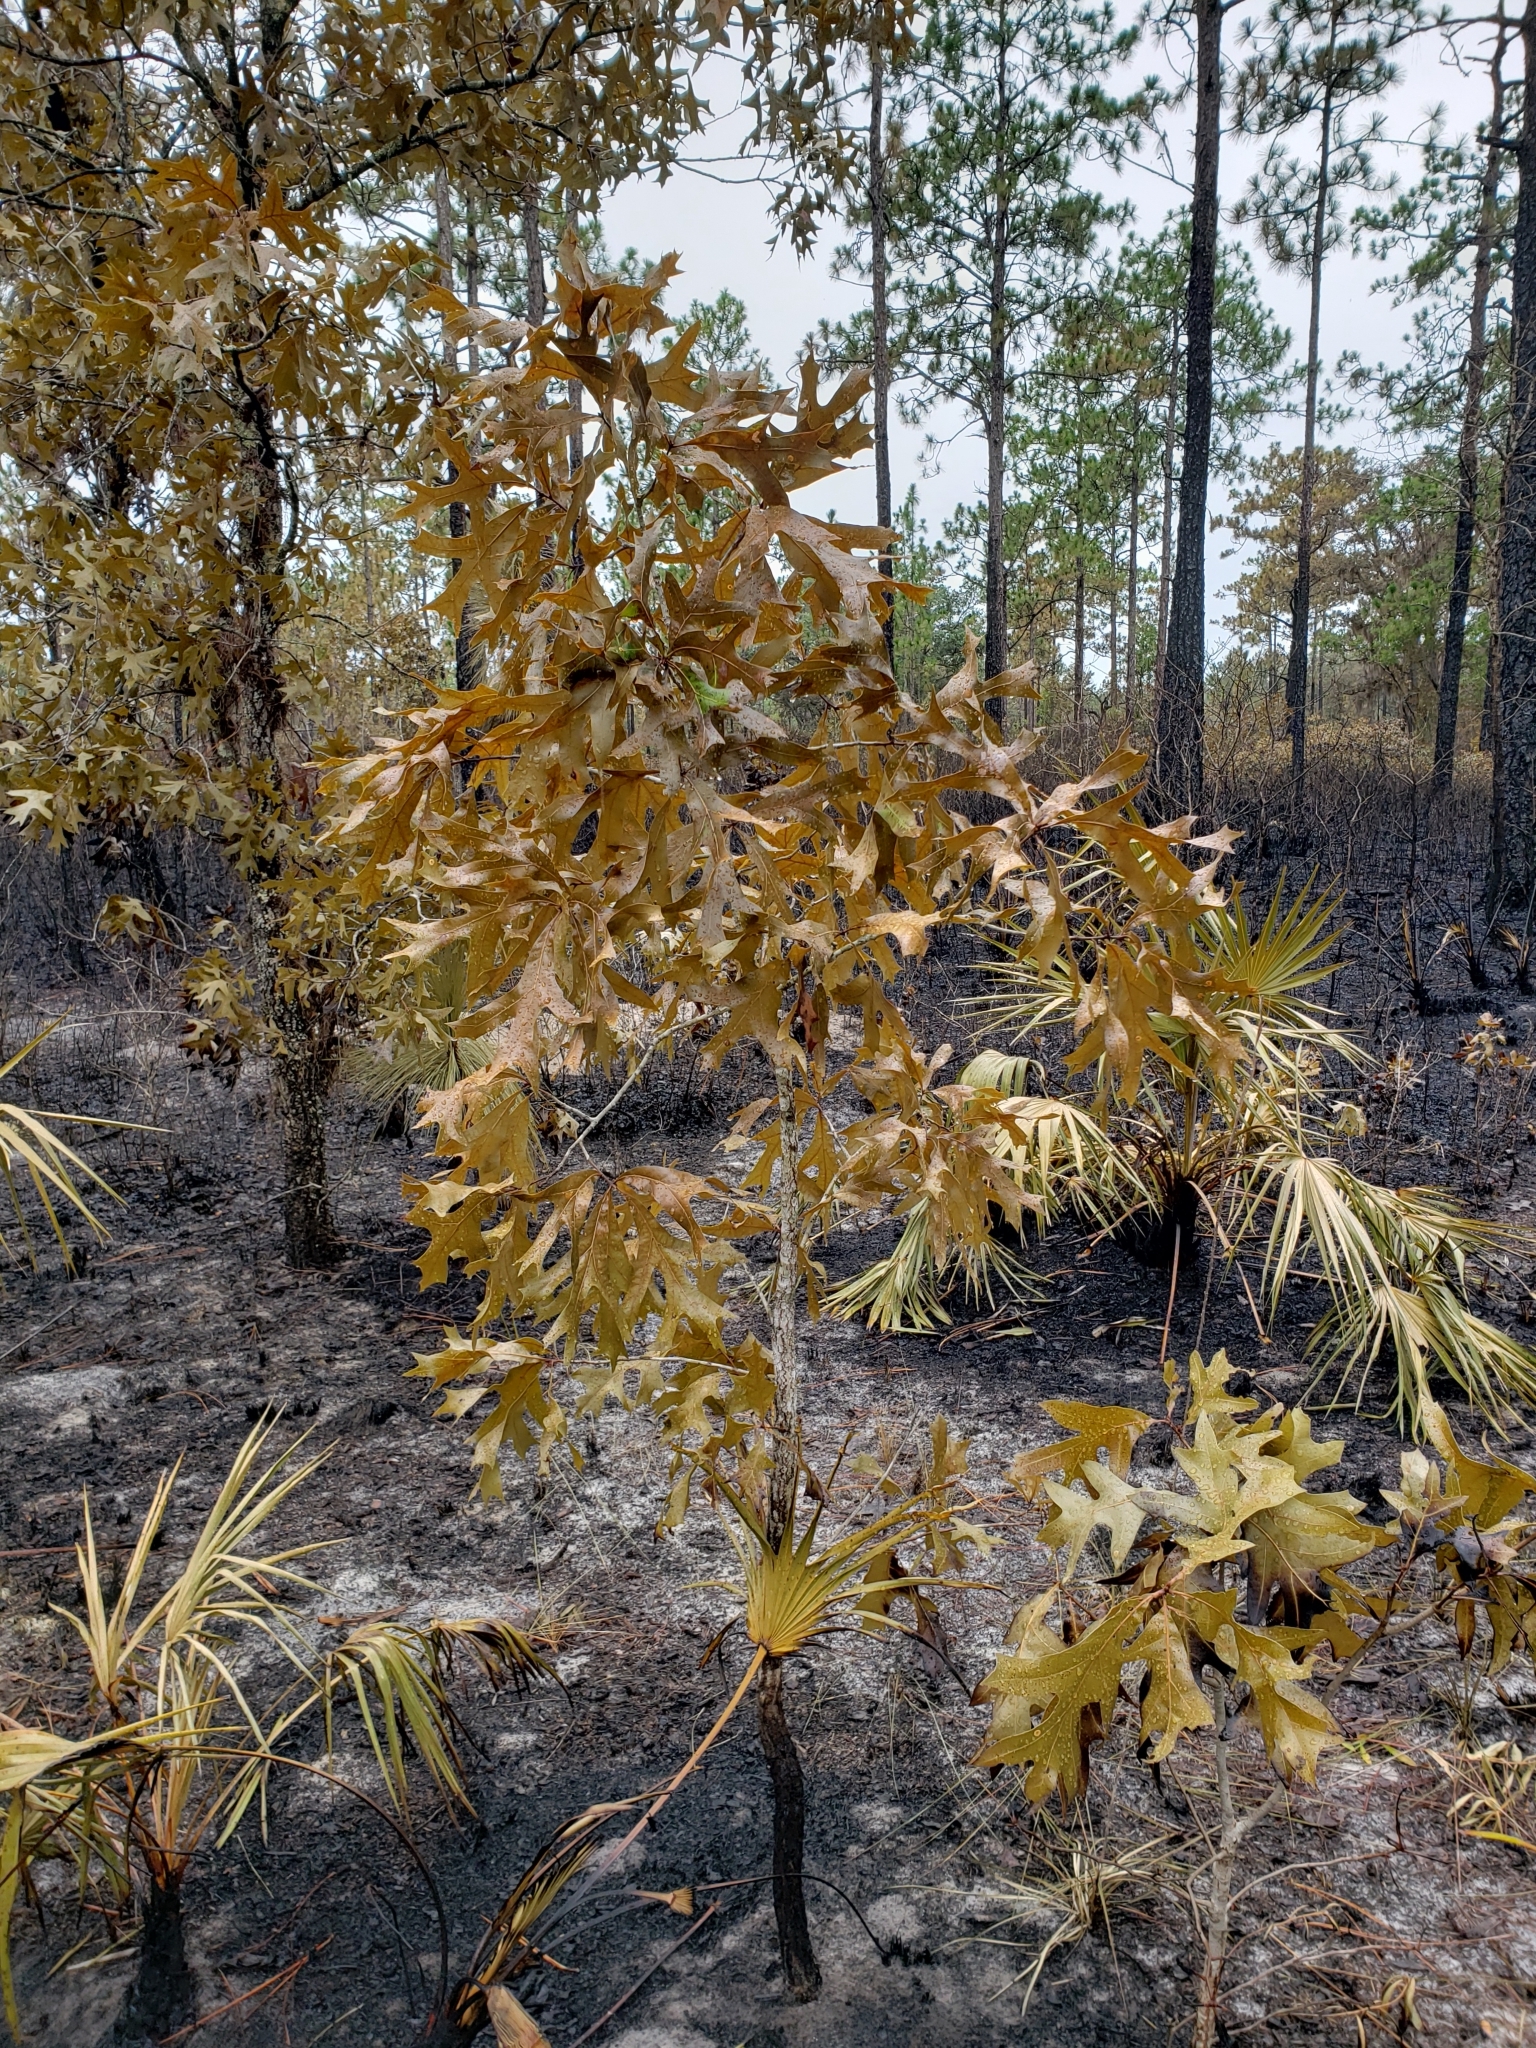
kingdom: Plantae
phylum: Tracheophyta
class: Magnoliopsida
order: Fagales
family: Fagaceae
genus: Quercus
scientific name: Quercus laevis
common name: Turkey oak
